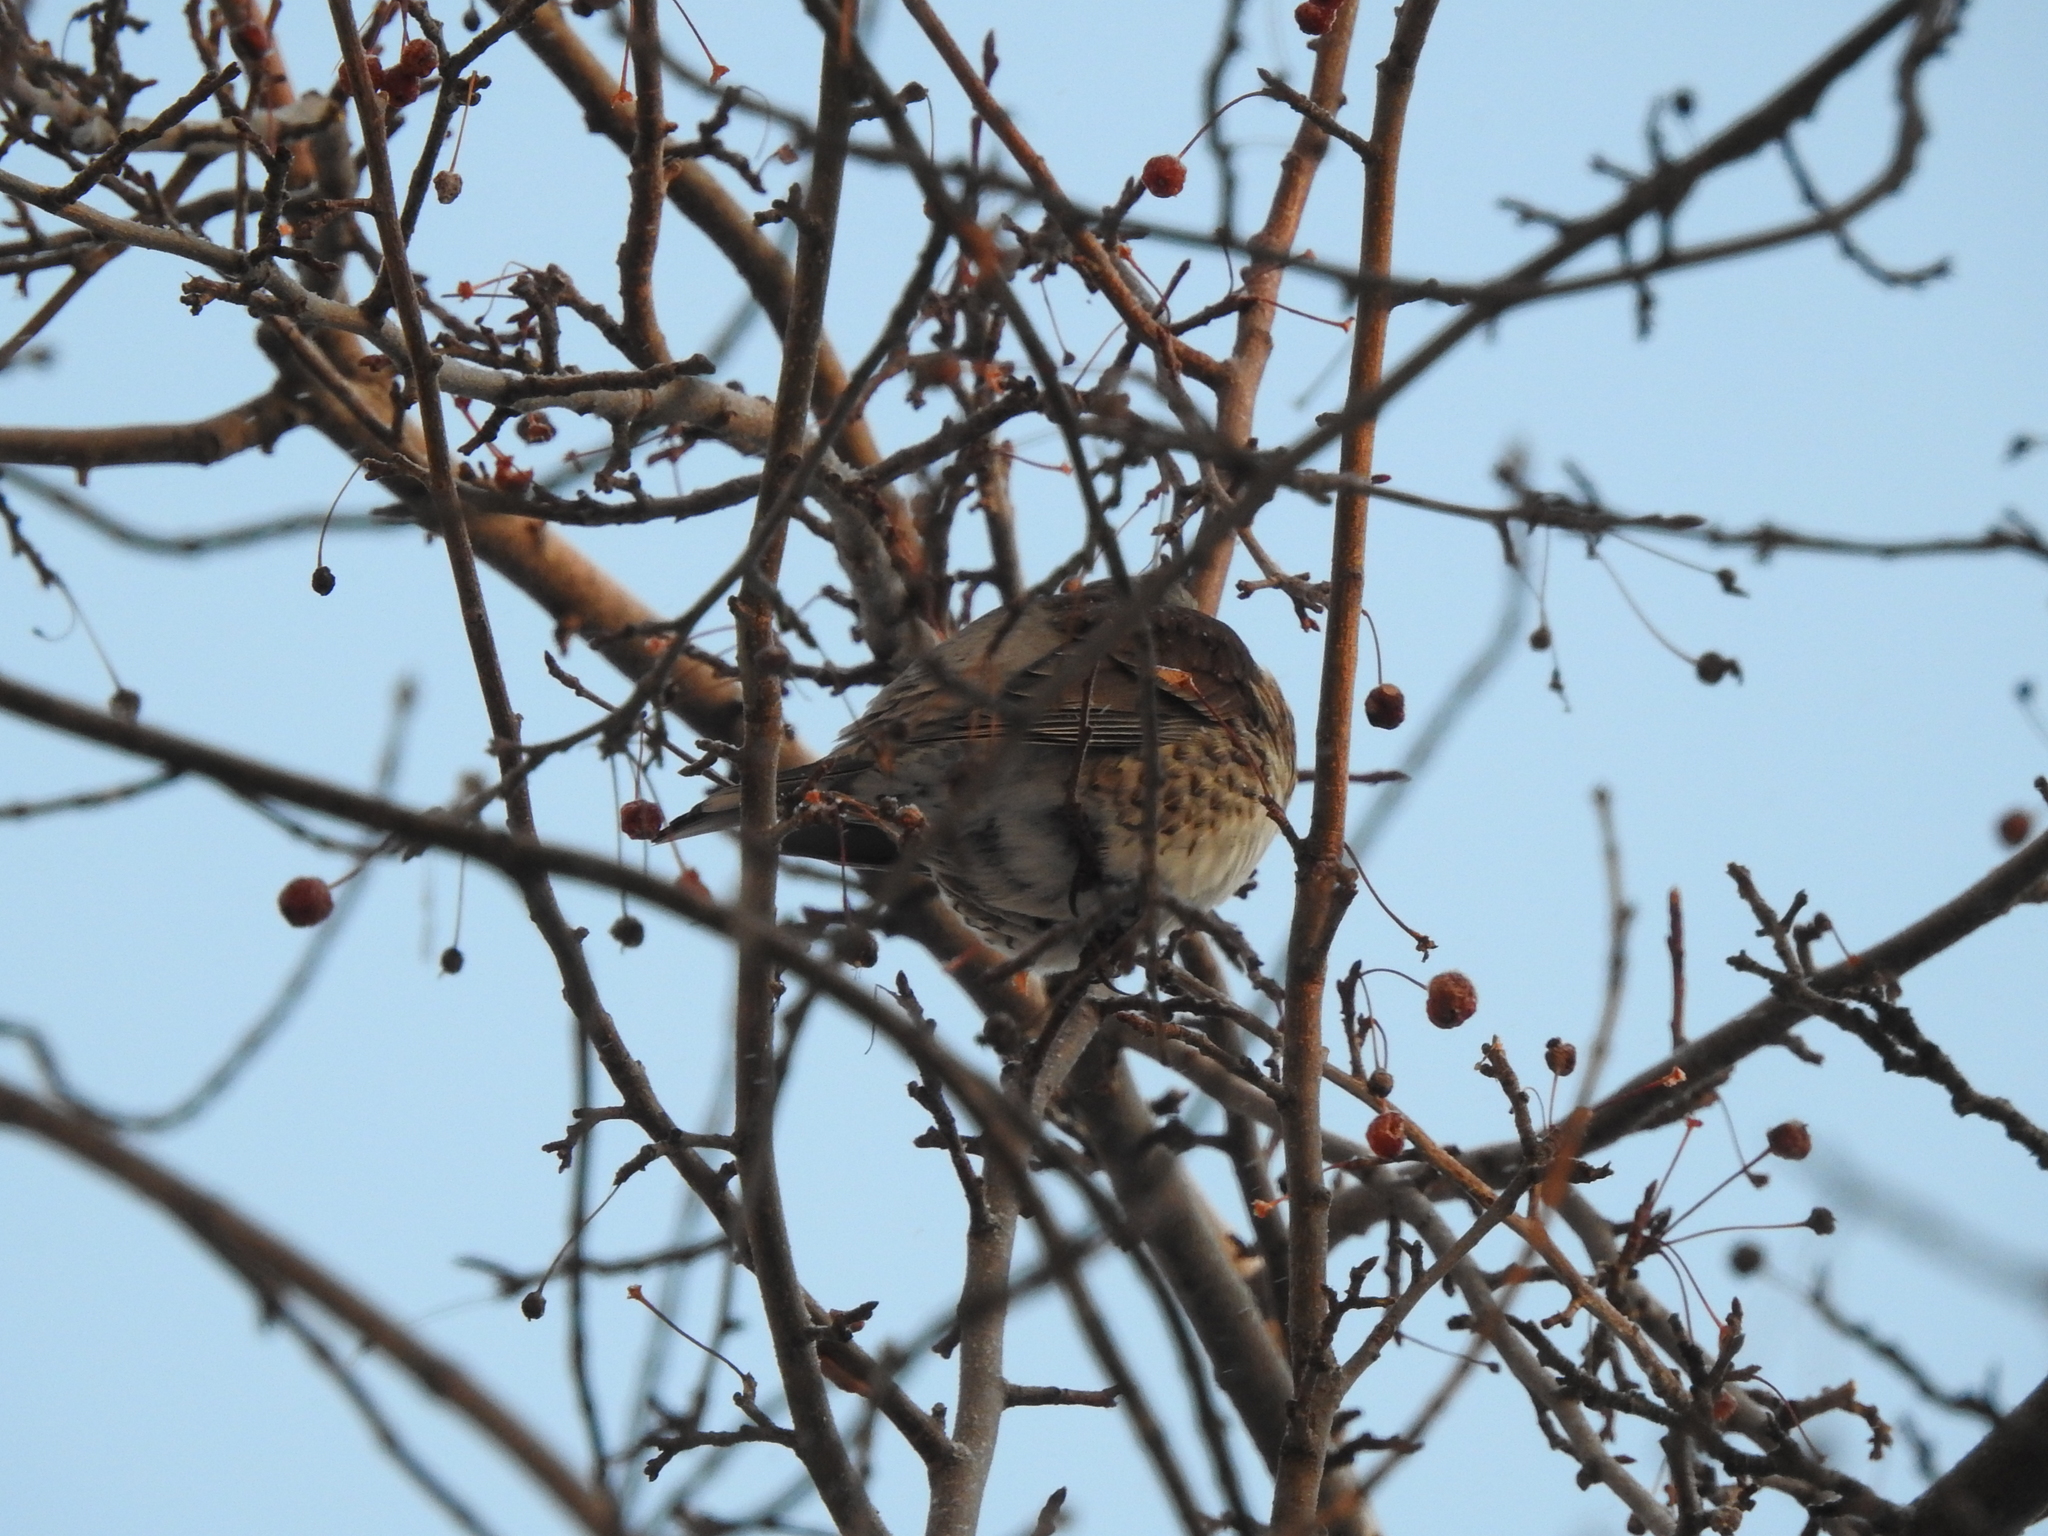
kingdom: Animalia
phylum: Chordata
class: Aves
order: Passeriformes
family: Turdidae
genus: Turdus
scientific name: Turdus pilaris
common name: Fieldfare
